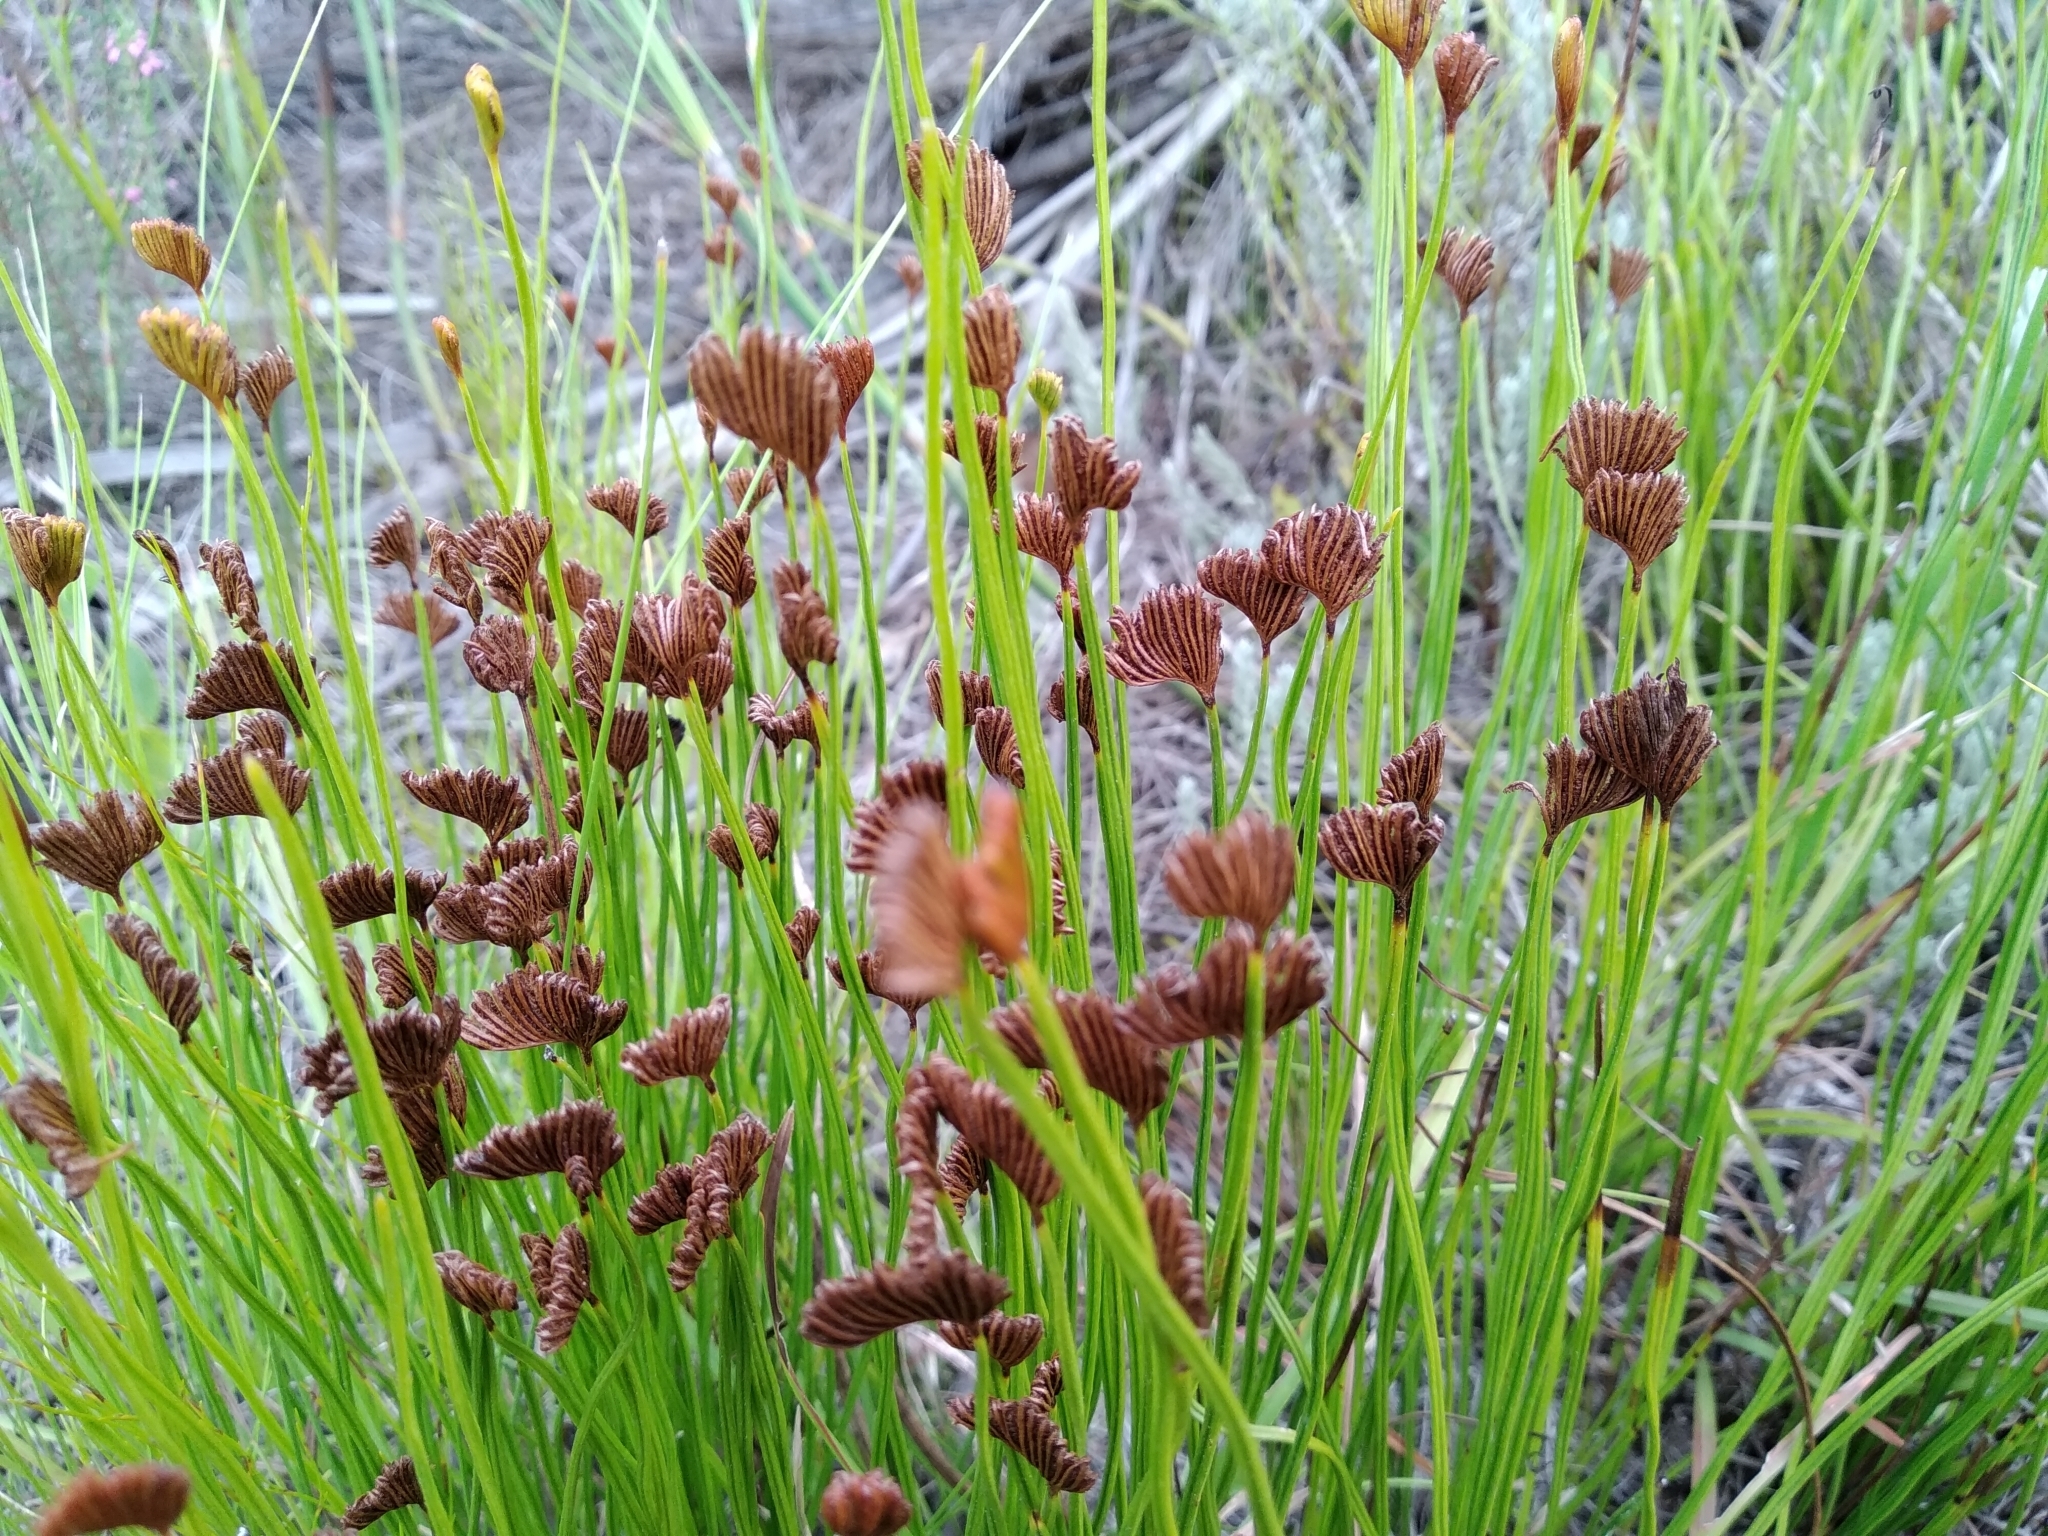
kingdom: Plantae
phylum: Tracheophyta
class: Polypodiopsida
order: Schizaeales
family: Schizaeaceae
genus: Schizaea
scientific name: Schizaea pectinata
